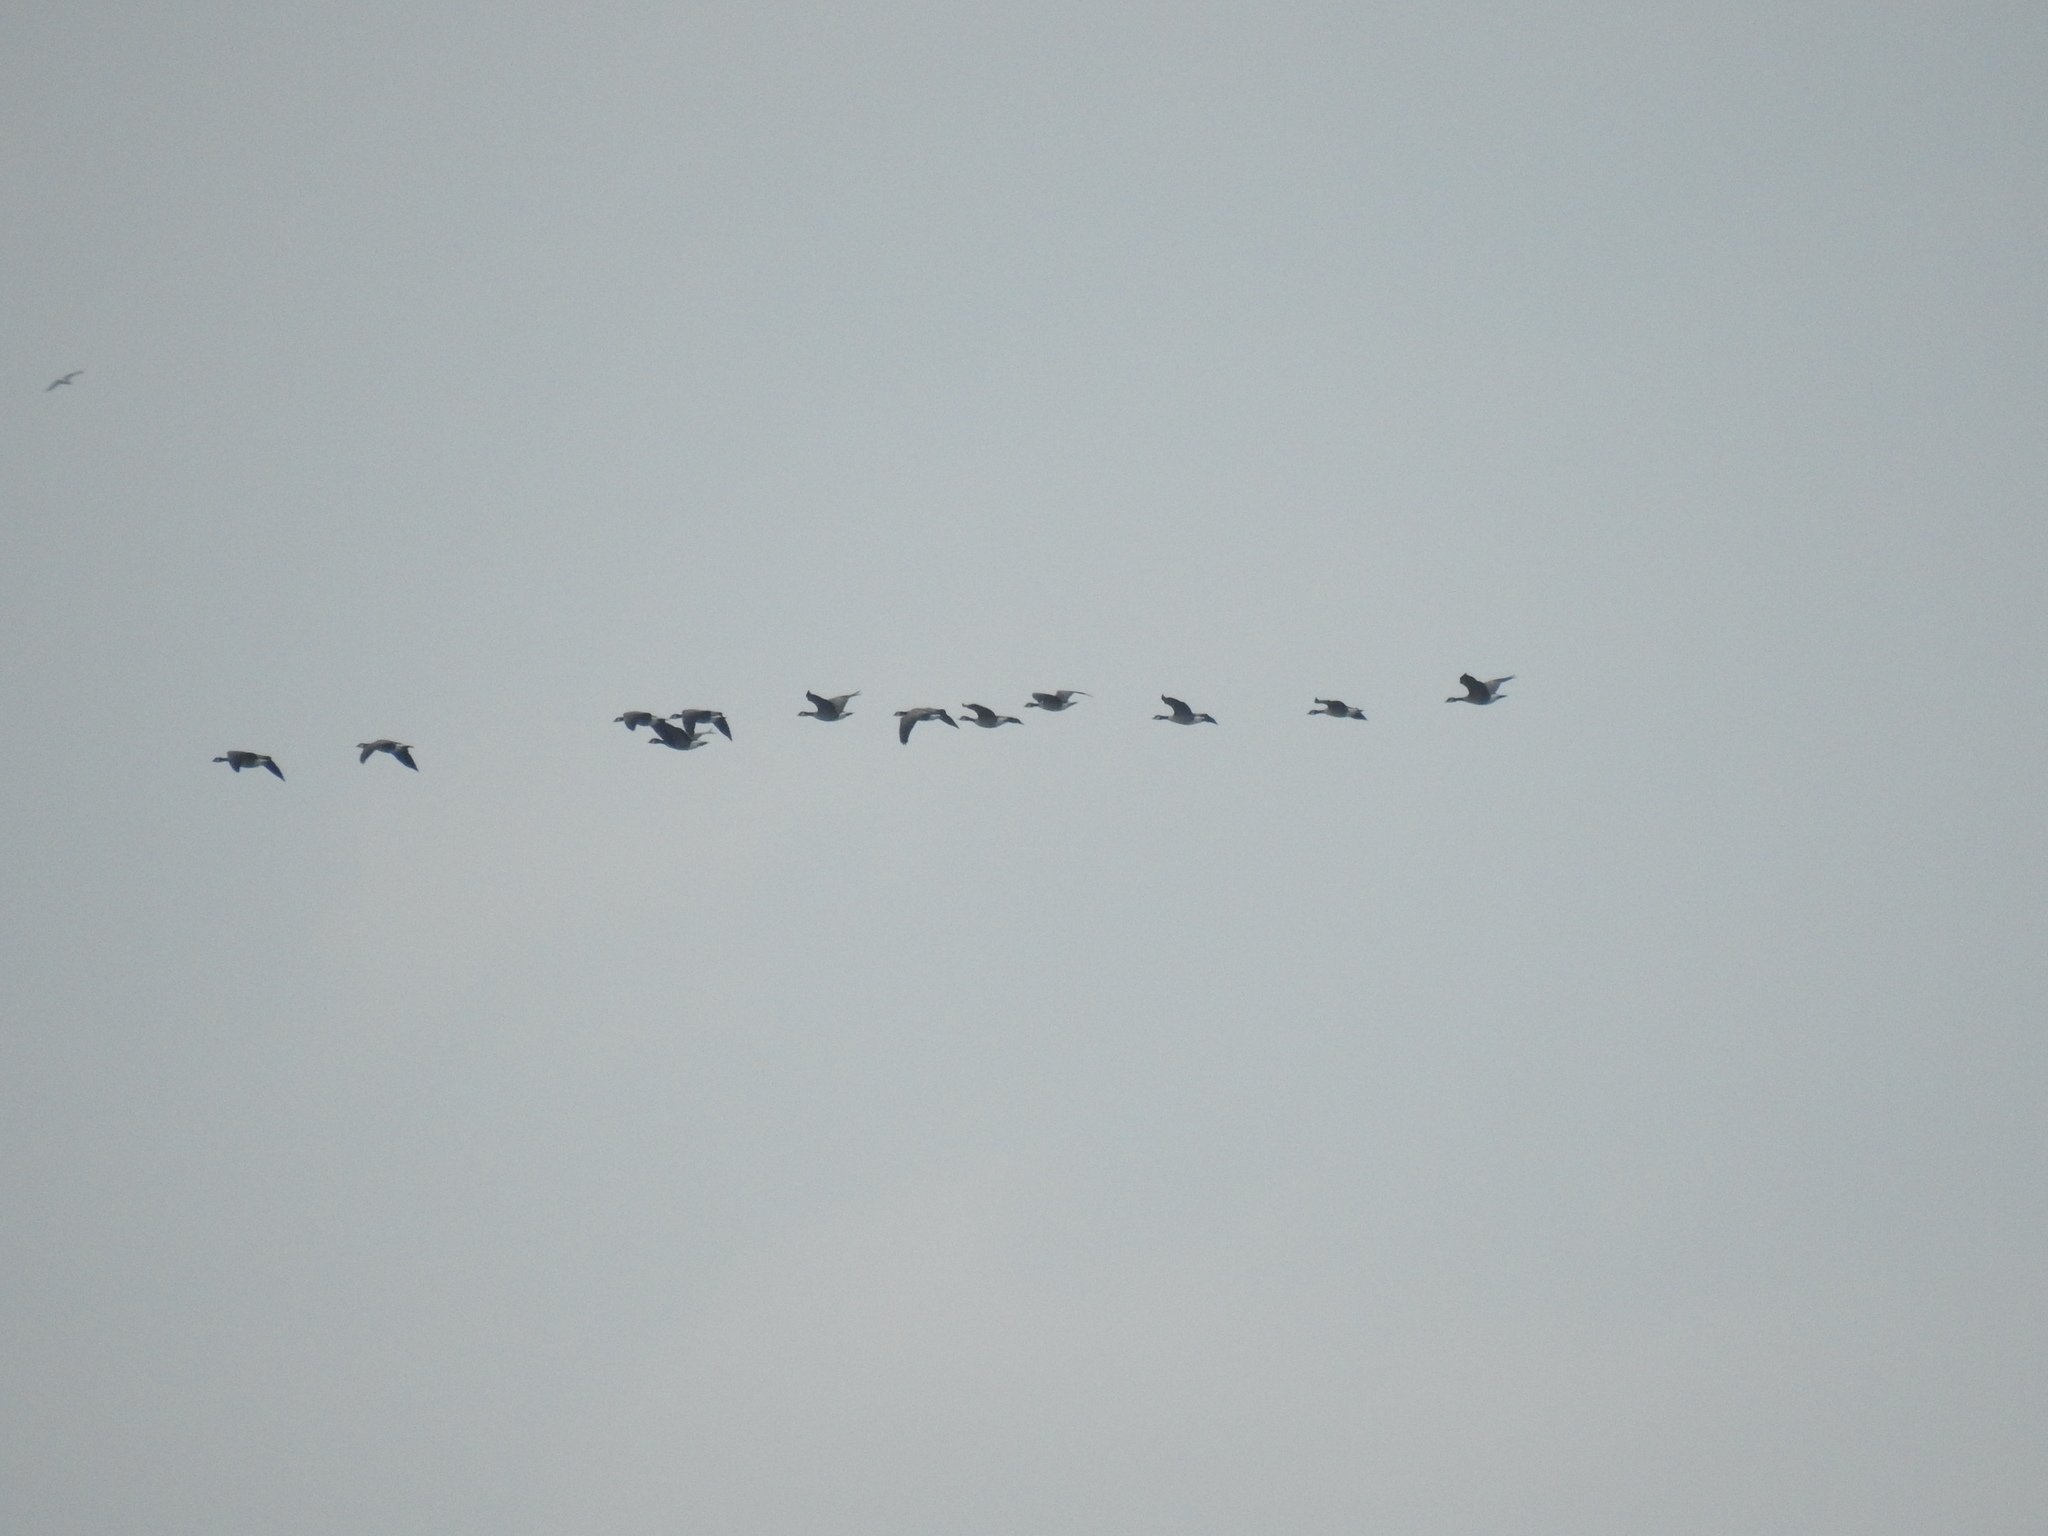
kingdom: Animalia
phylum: Chordata
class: Aves
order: Anseriformes
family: Anatidae
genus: Branta
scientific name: Branta canadensis
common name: Canada goose
